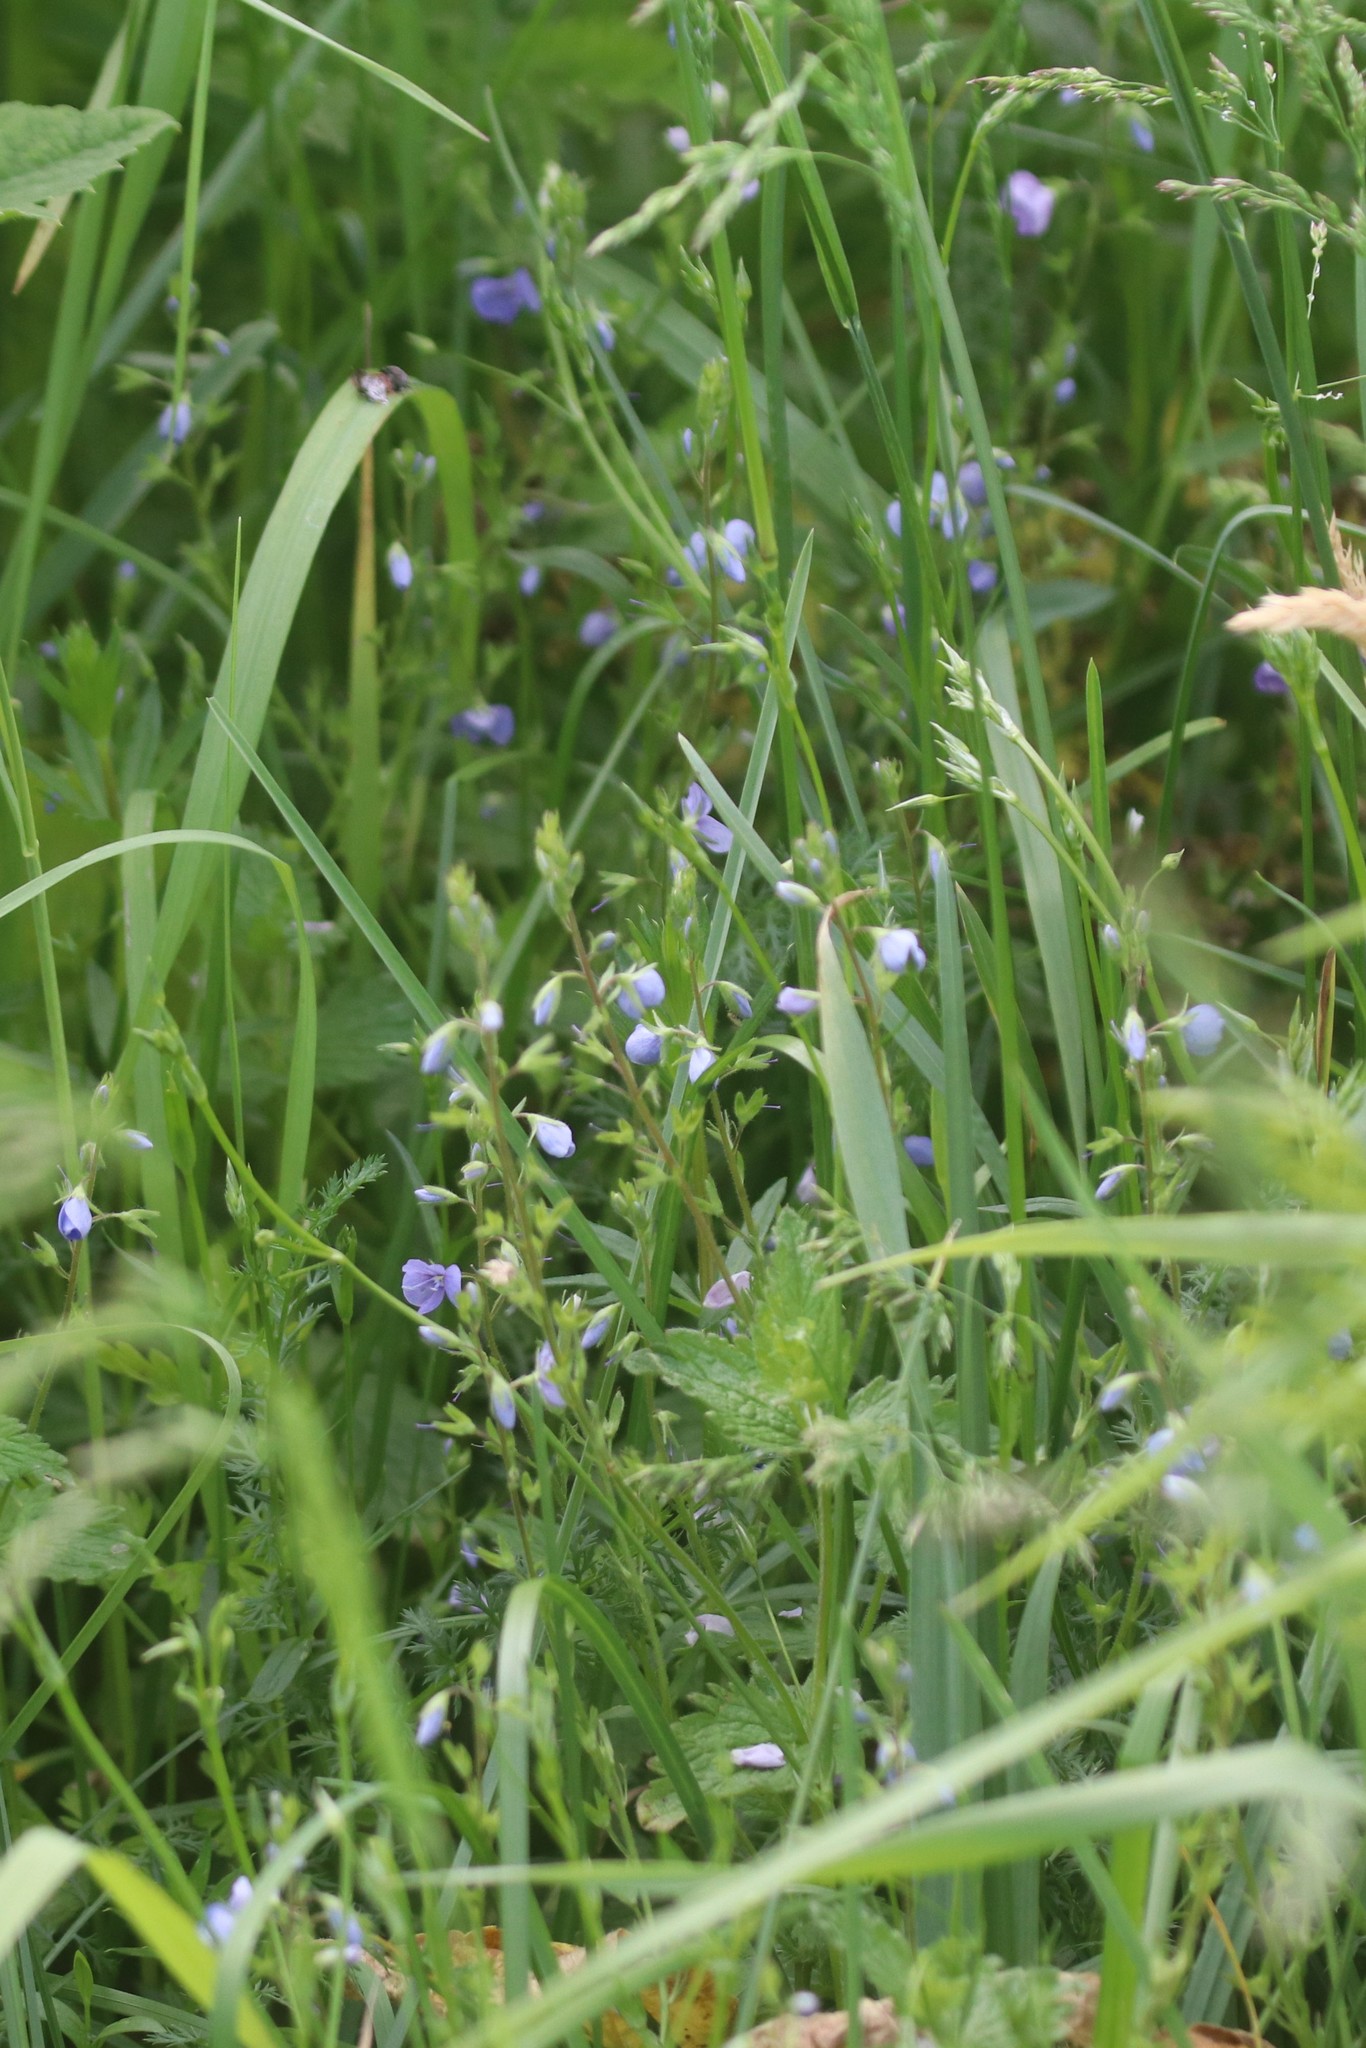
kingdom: Plantae
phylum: Tracheophyta
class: Magnoliopsida
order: Lamiales
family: Plantaginaceae
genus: Veronica
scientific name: Veronica chamaedrys
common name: Germander speedwell
